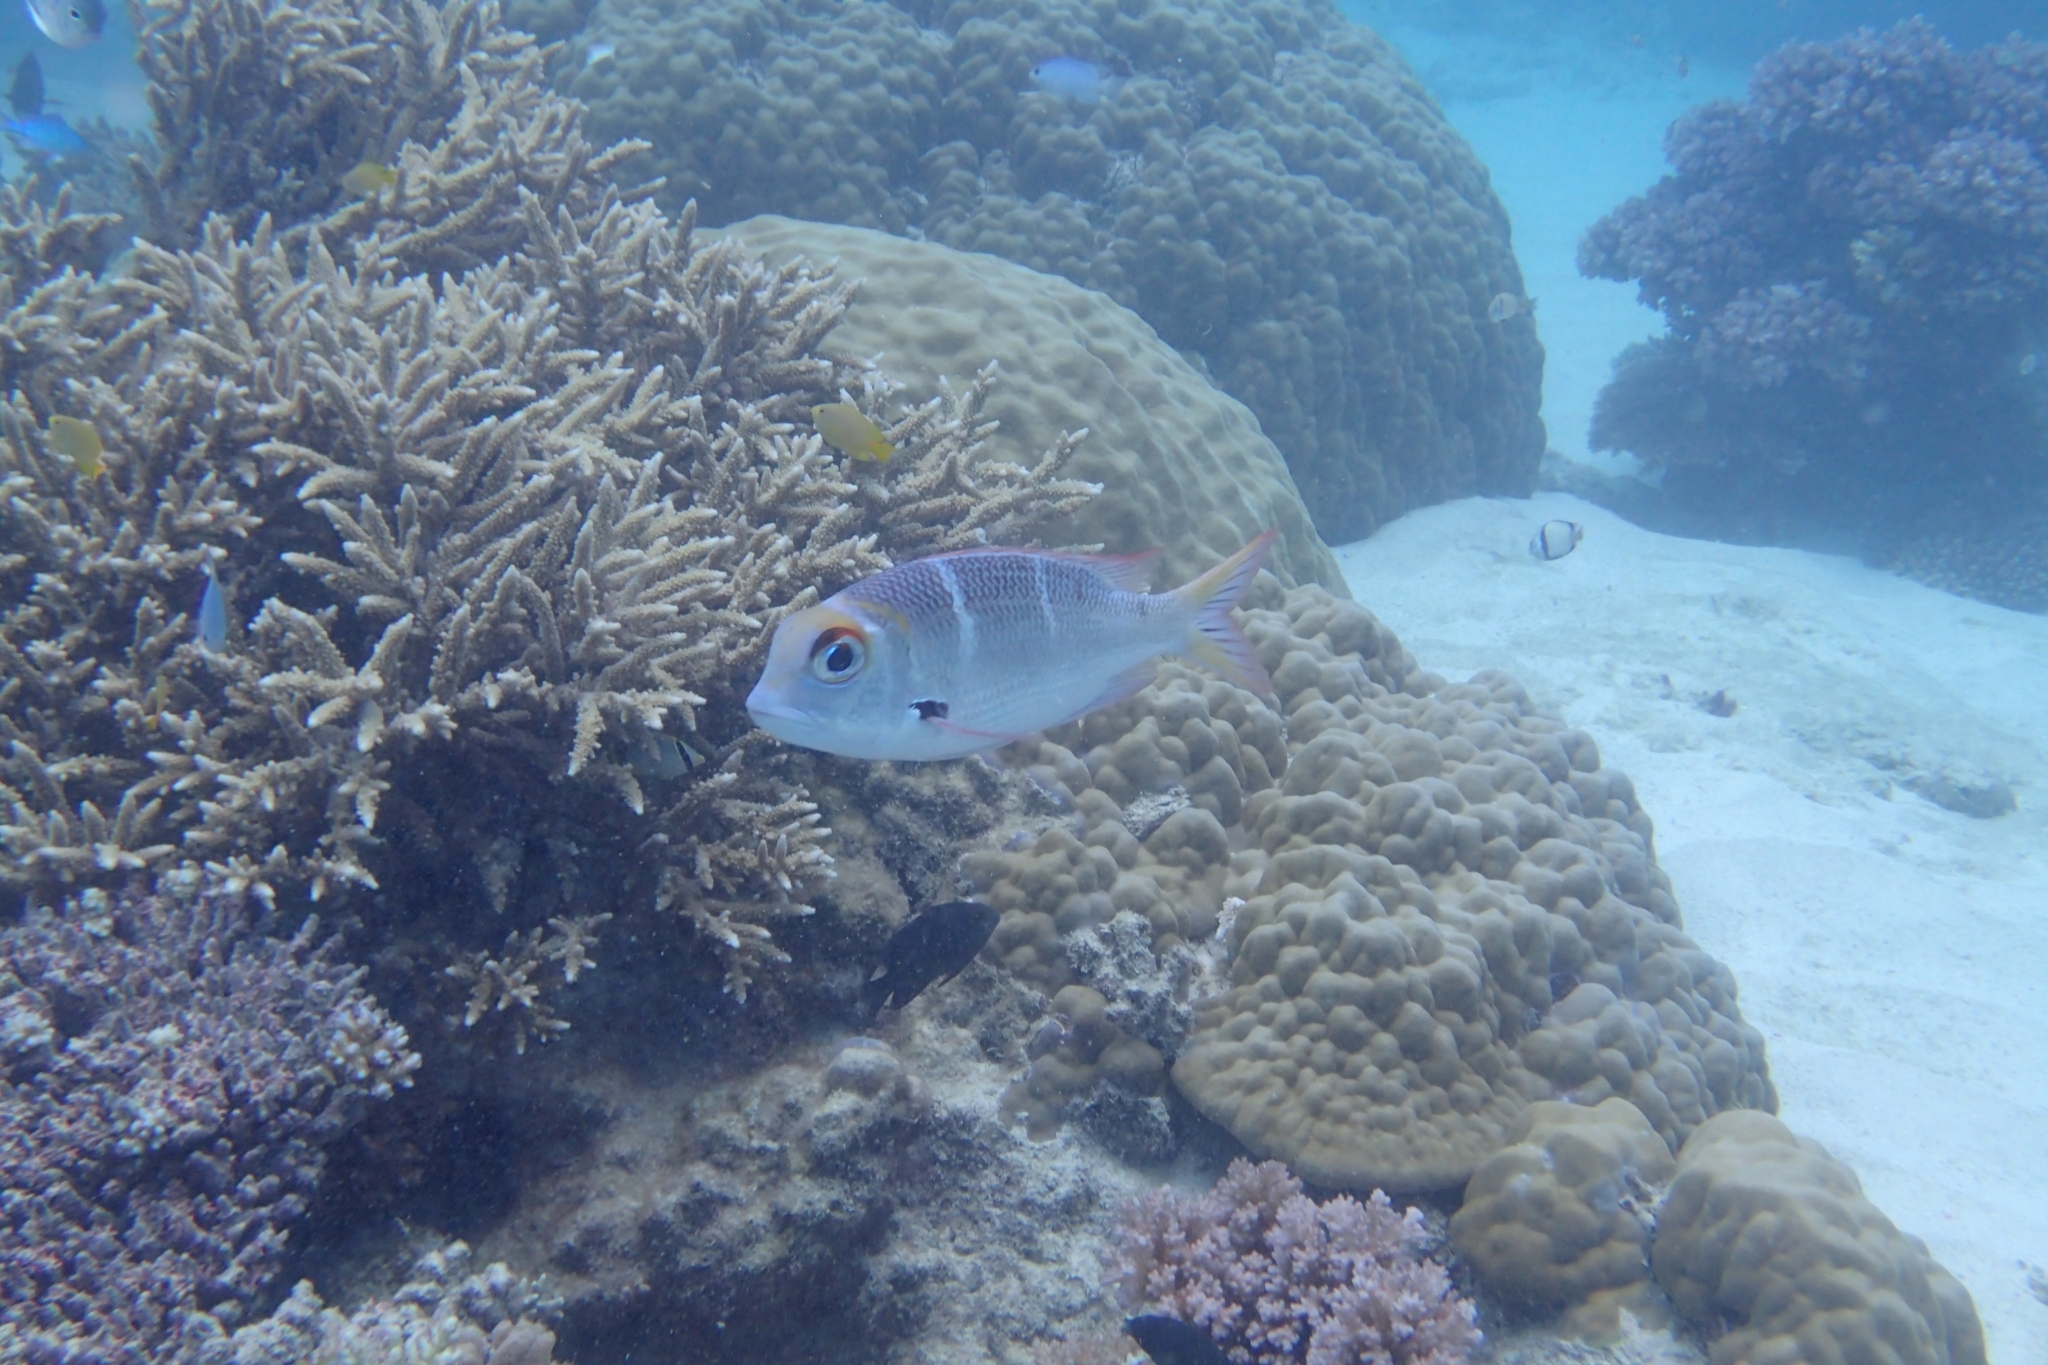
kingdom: Animalia
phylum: Chordata
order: Perciformes
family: Lethrinidae
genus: Monotaxis
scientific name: Monotaxis heterodon
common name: Redfin emperor
